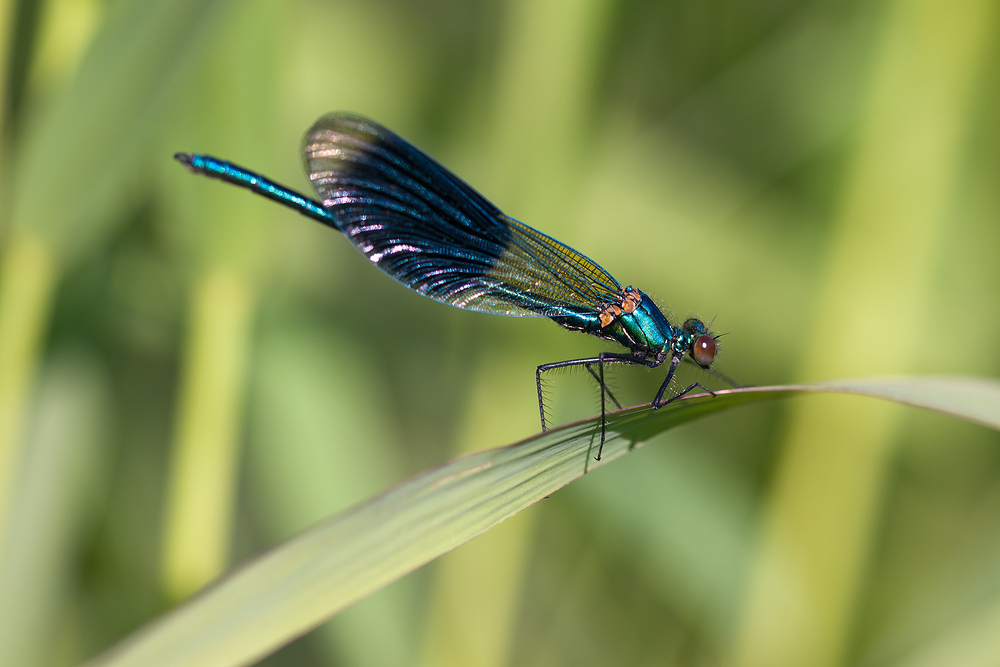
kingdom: Animalia
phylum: Arthropoda
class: Insecta
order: Odonata
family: Calopterygidae
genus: Calopteryx
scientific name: Calopteryx splendens
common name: Banded demoiselle
